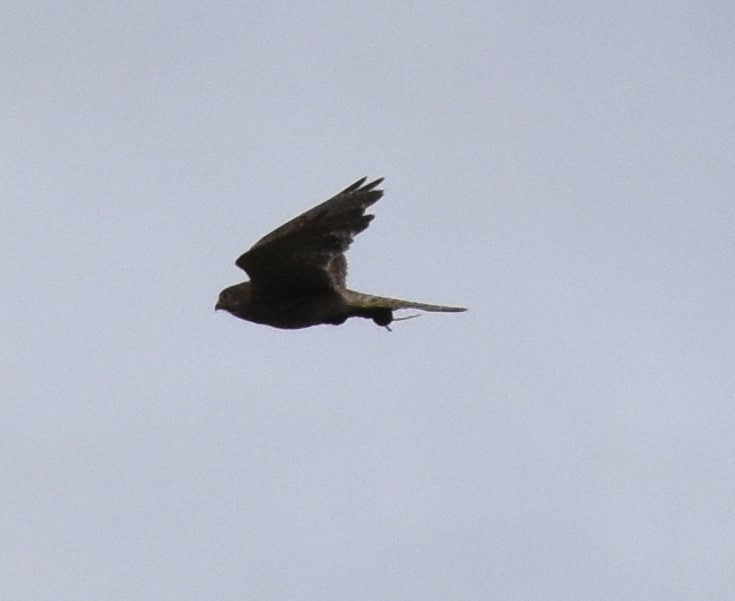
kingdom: Animalia
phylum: Chordata
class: Aves
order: Falconiformes
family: Falconidae
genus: Falco
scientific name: Falco tinnunculus
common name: Common kestrel
